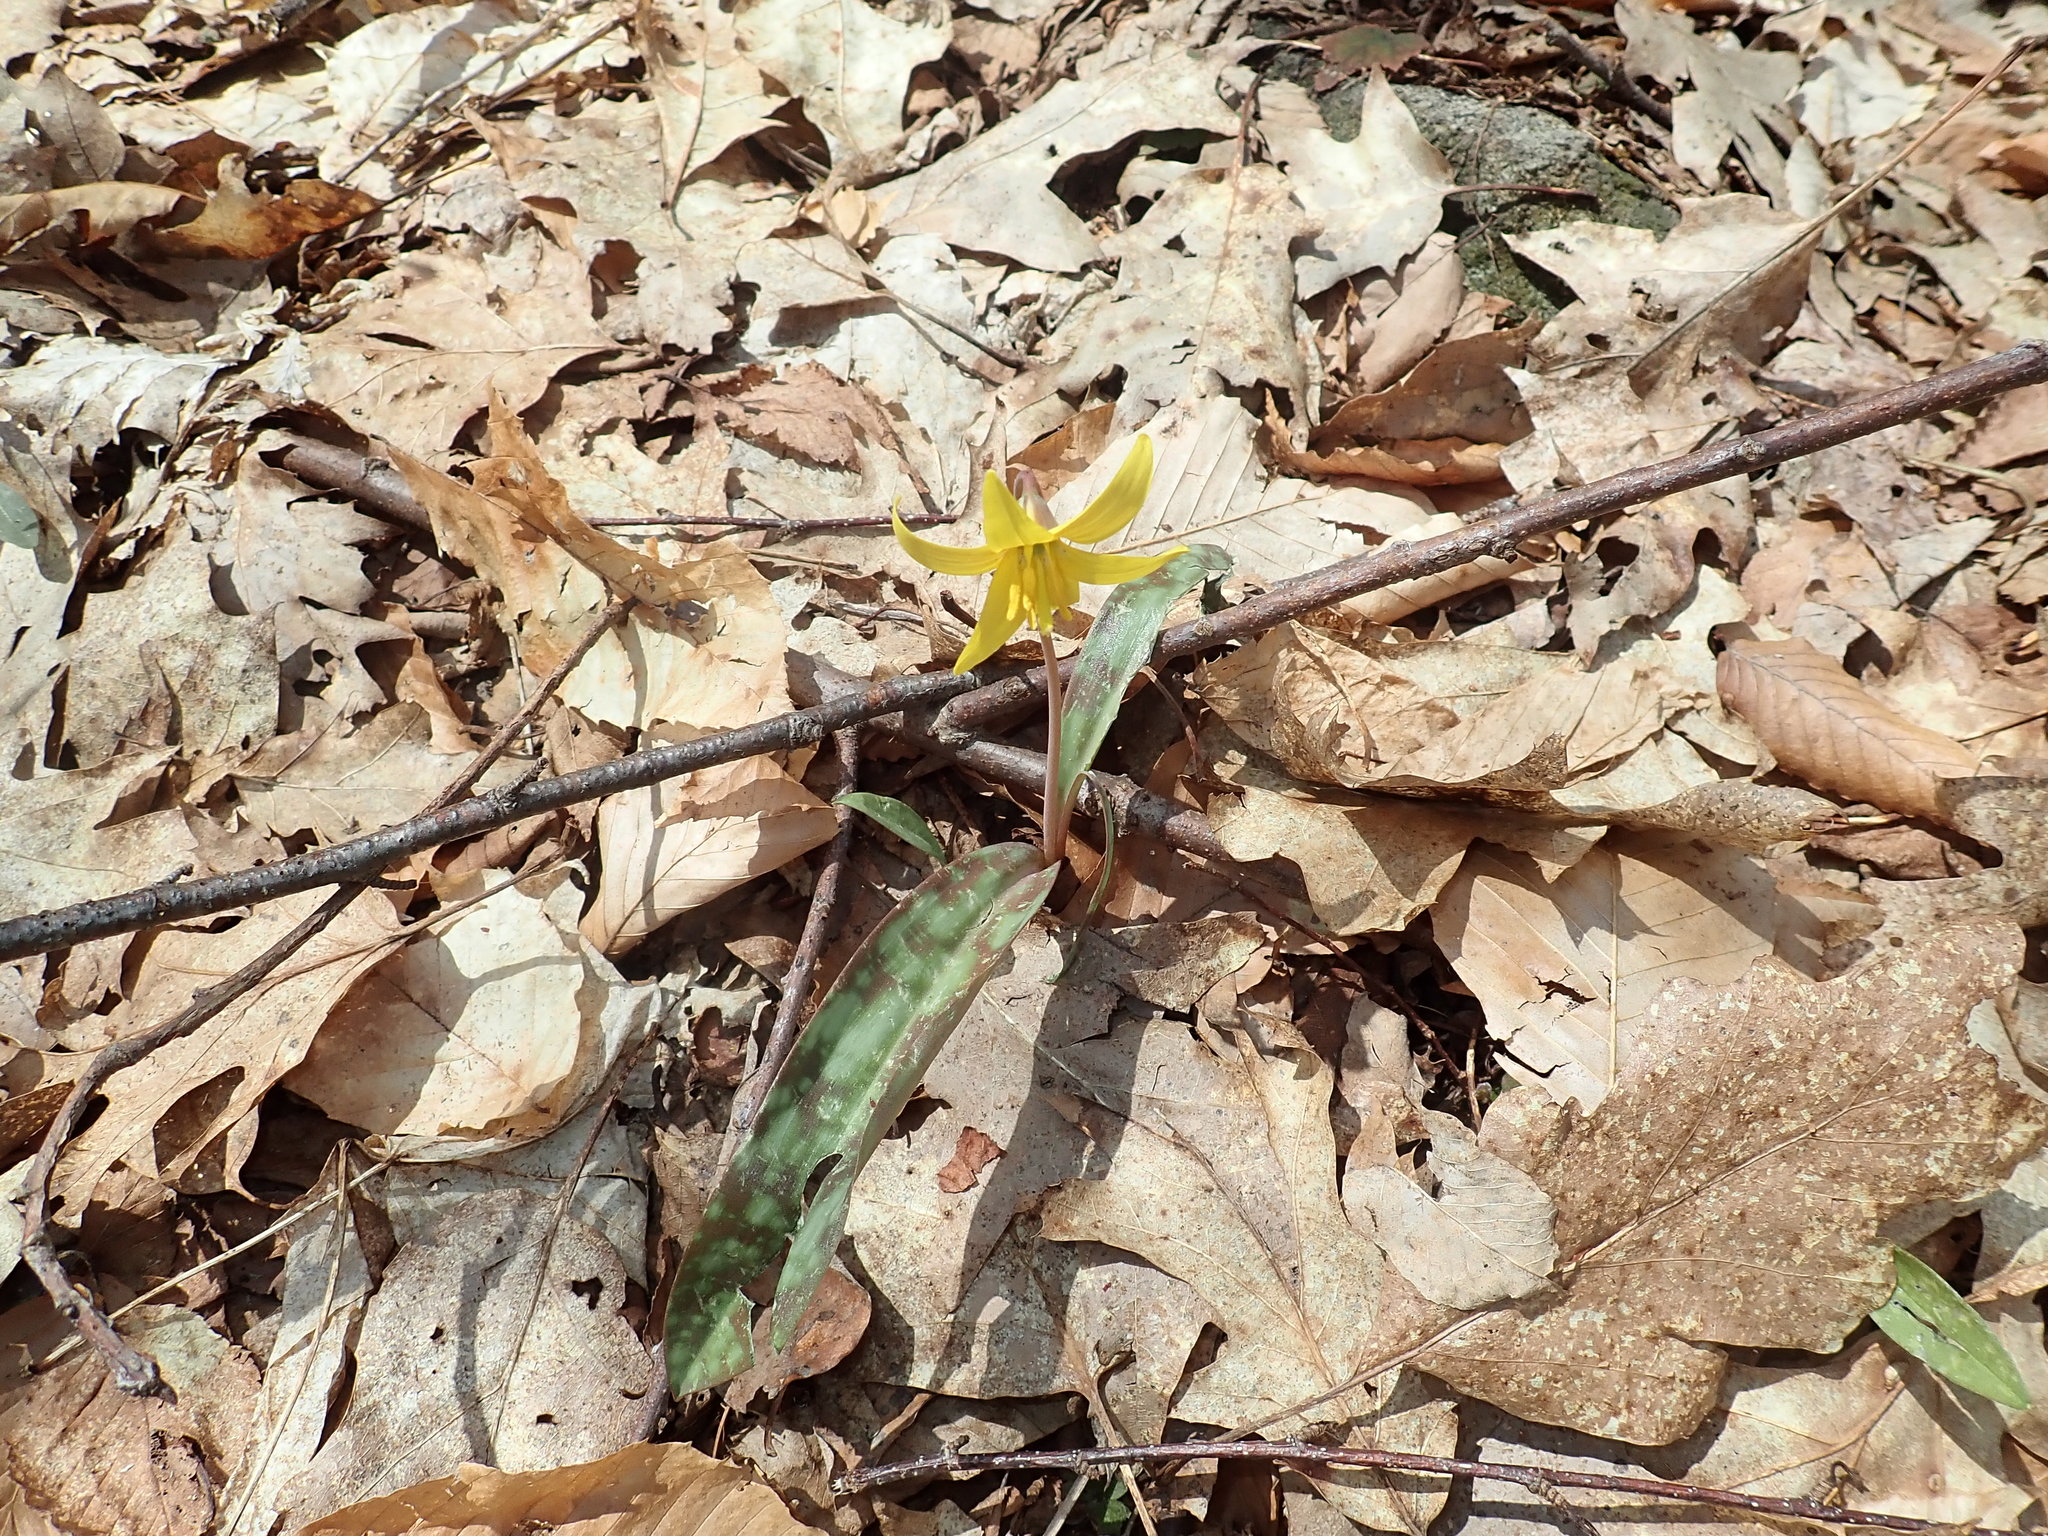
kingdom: Plantae
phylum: Tracheophyta
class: Liliopsida
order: Liliales
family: Liliaceae
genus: Erythronium
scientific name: Erythronium americanum
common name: Yellow adder's-tongue
